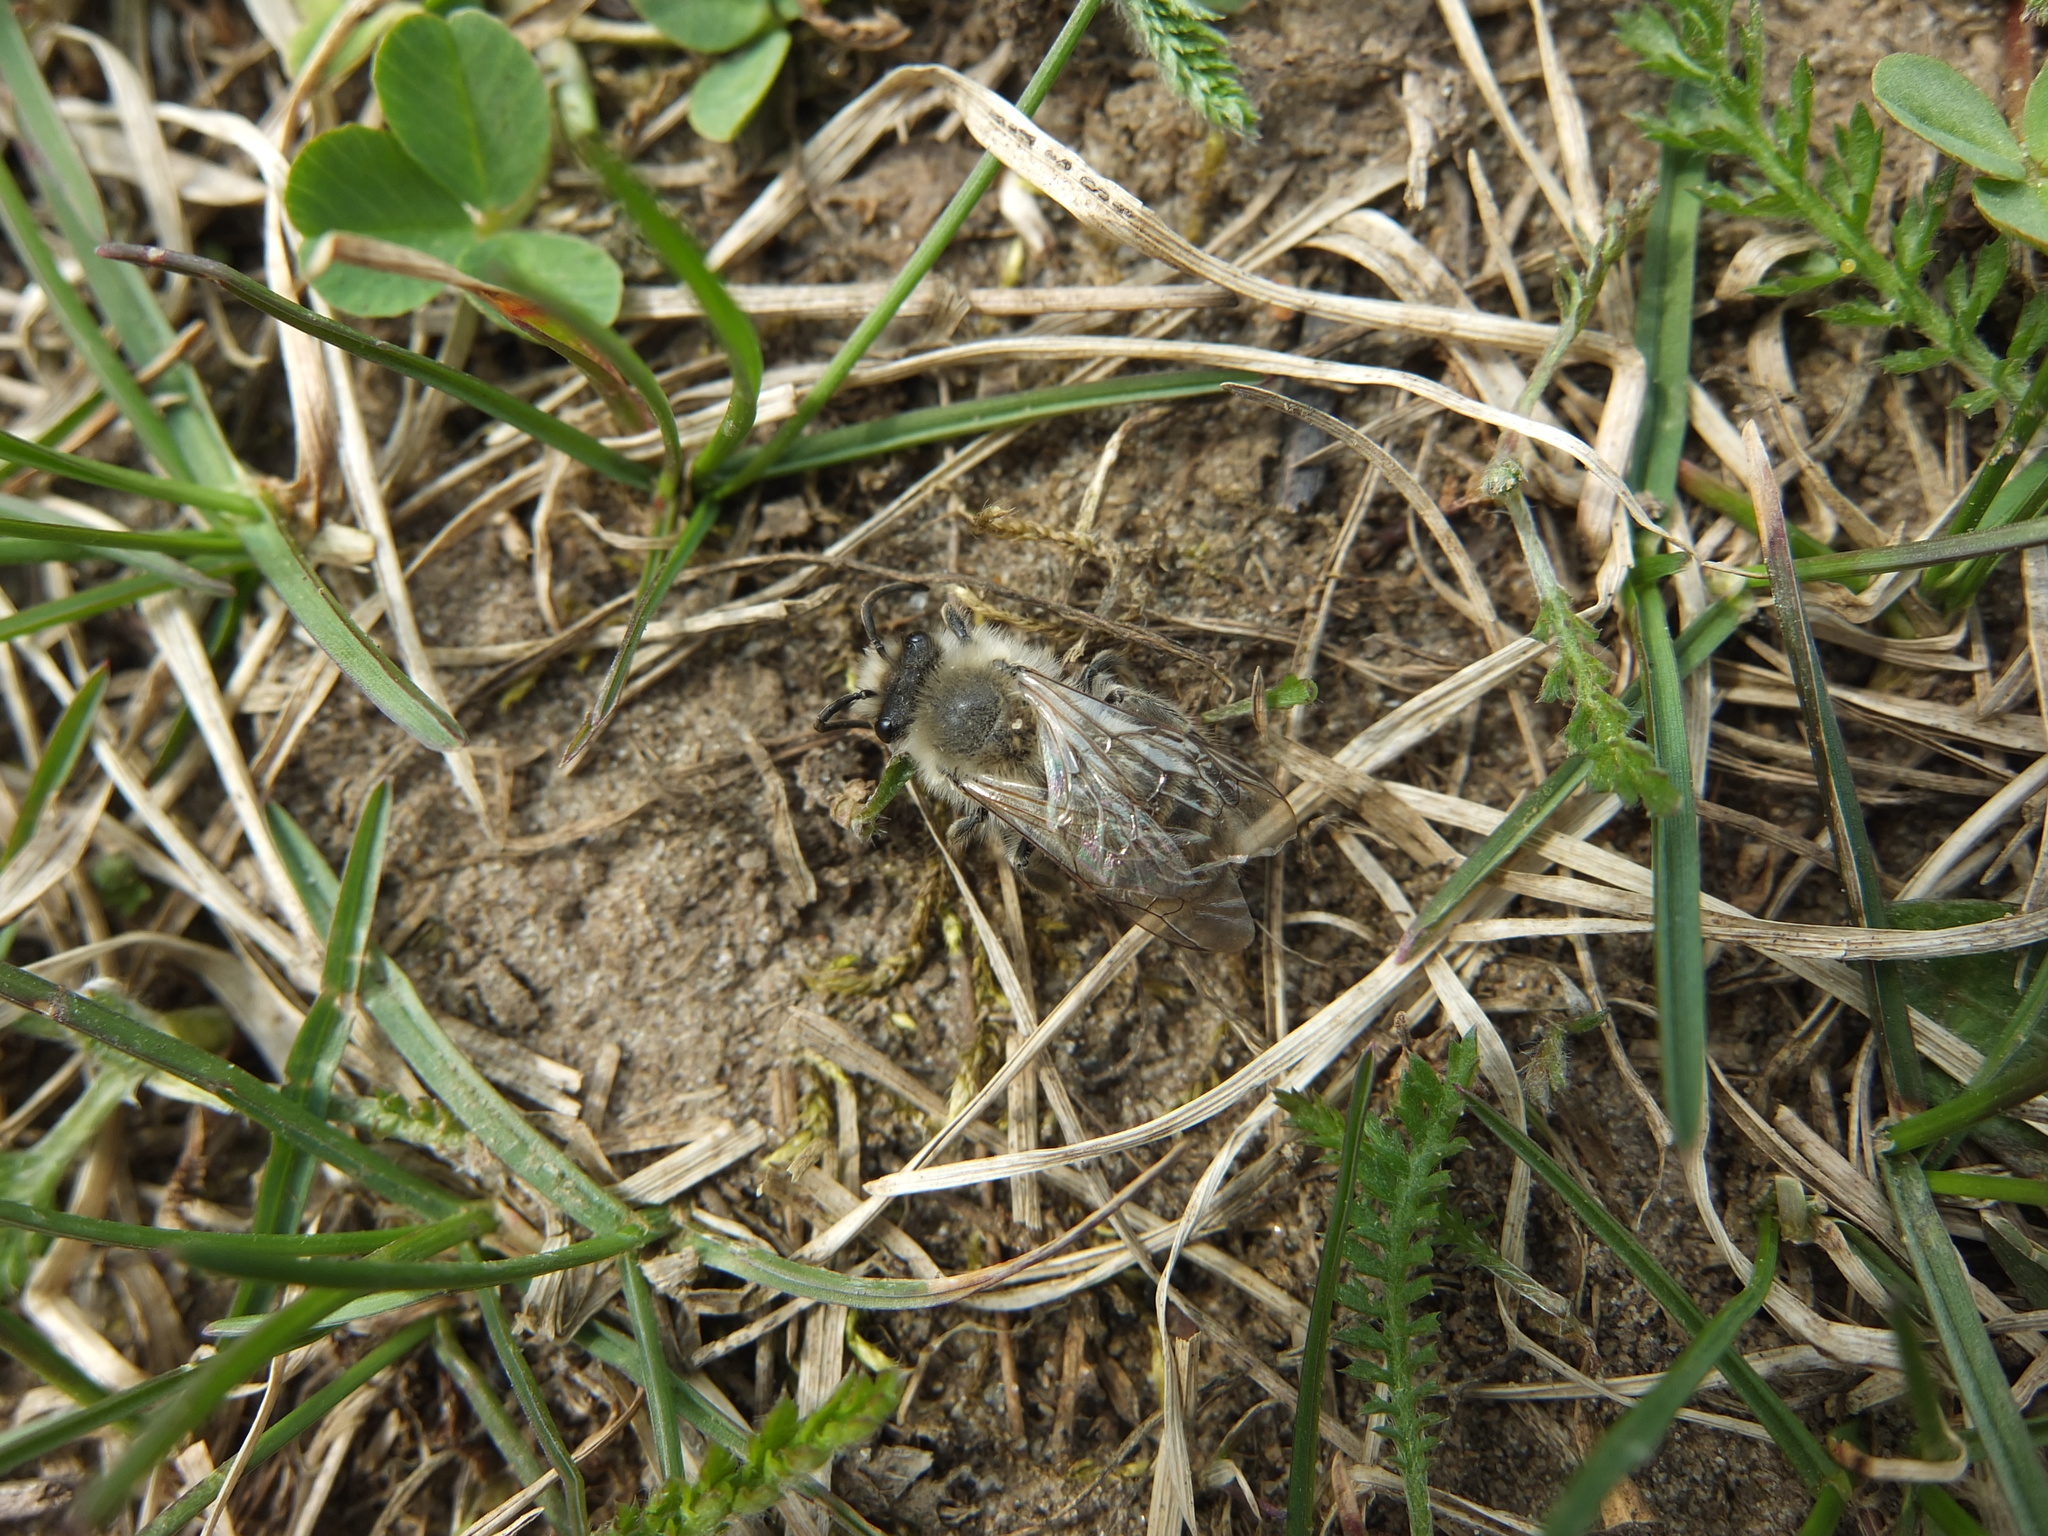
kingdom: Animalia
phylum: Arthropoda
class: Insecta
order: Hymenoptera
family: Colletidae
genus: Colletes
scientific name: Colletes cunicularius
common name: Early colletes
